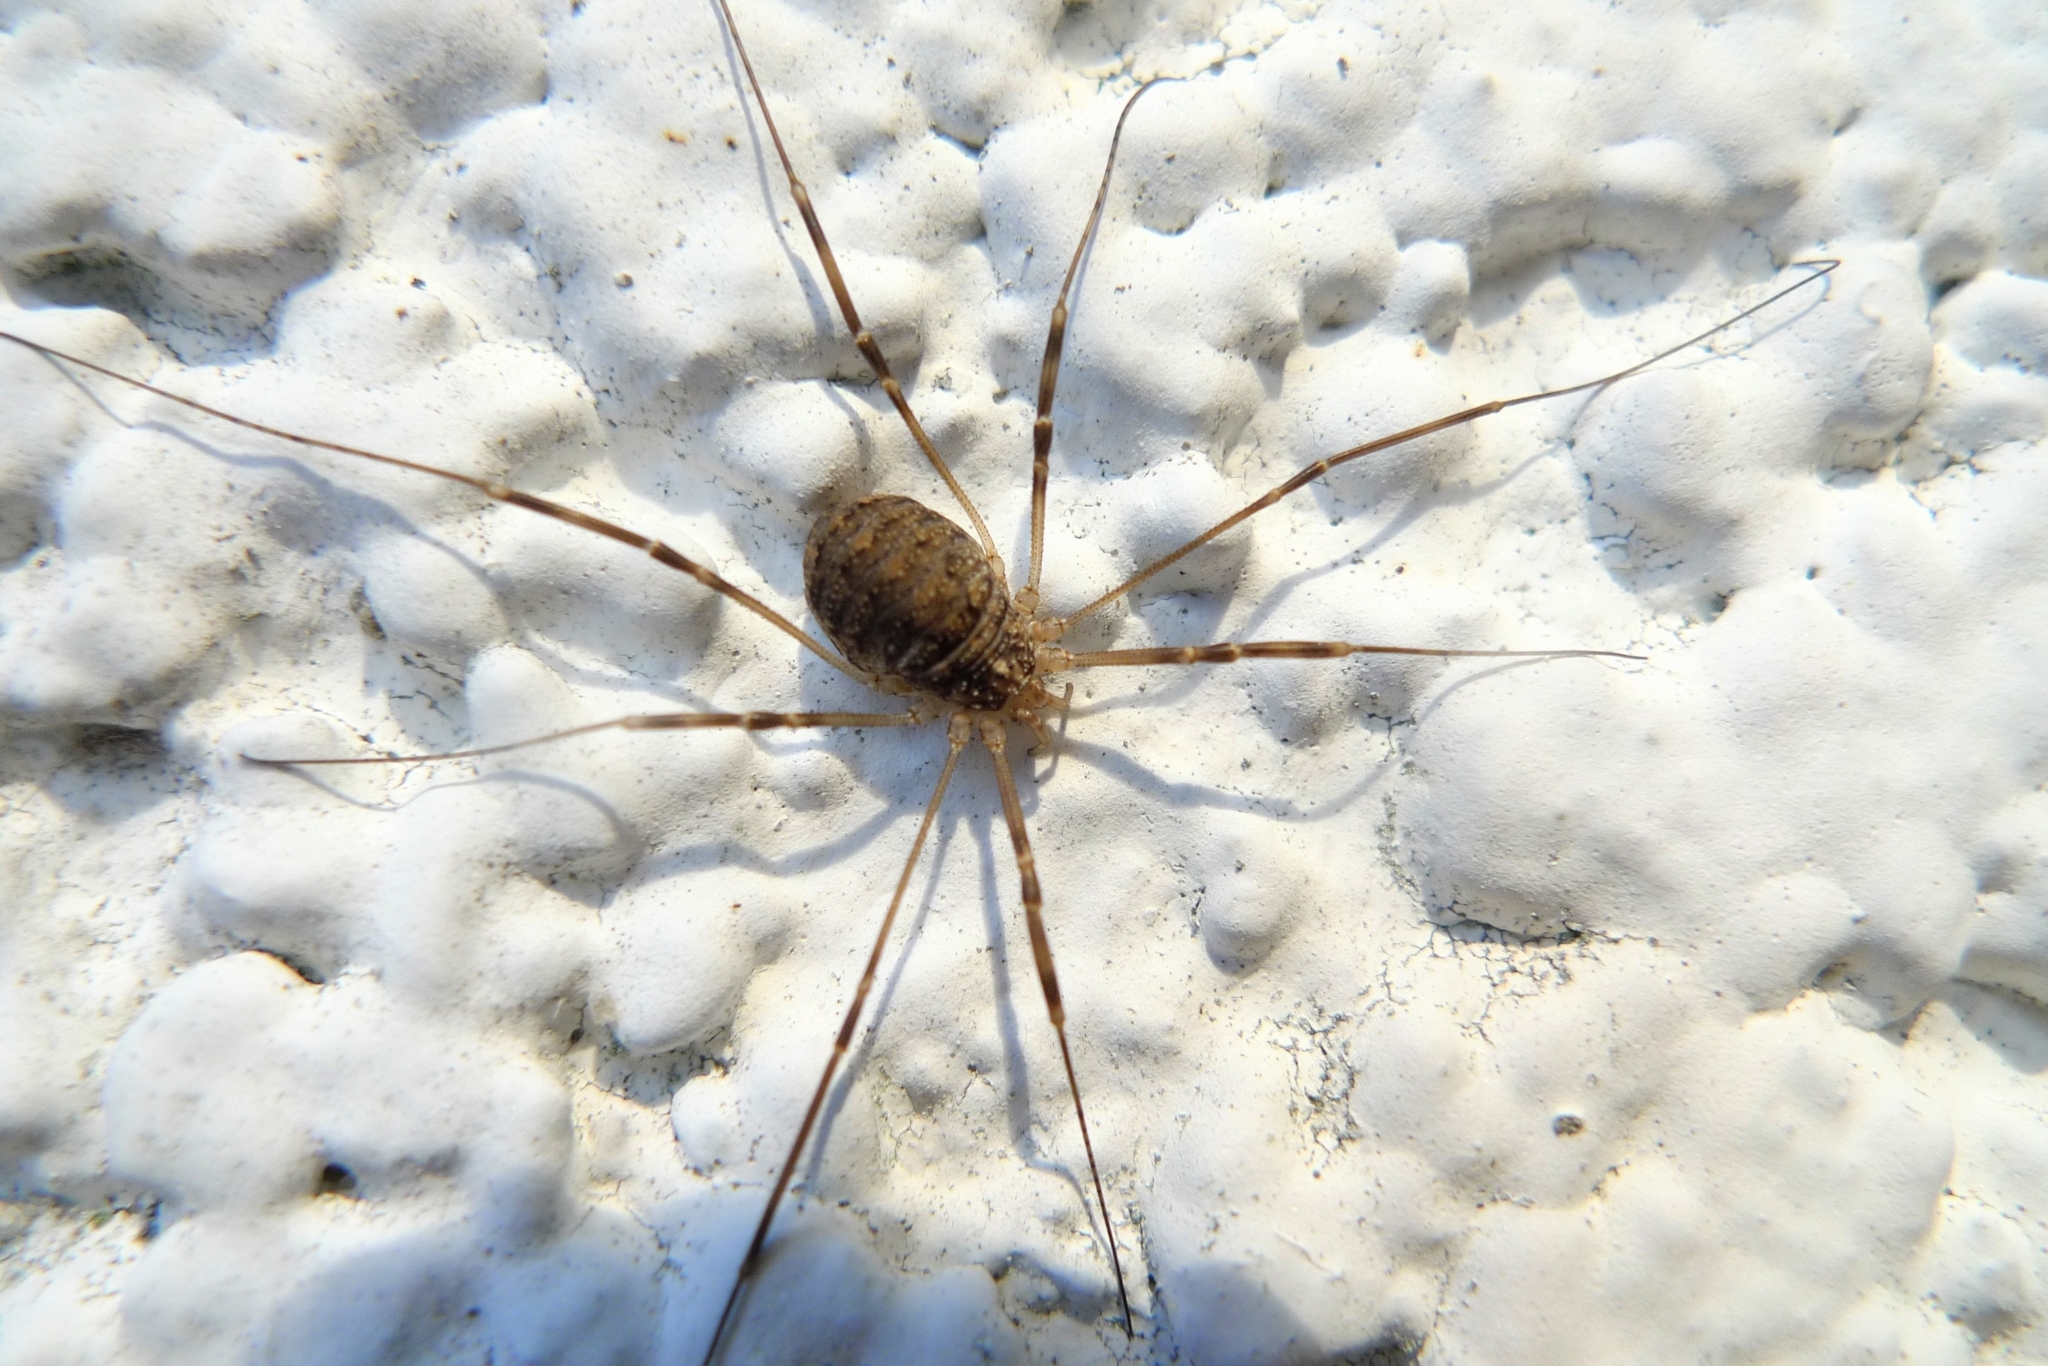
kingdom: Animalia
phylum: Arthropoda
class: Arachnida
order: Opiliones
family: Phalangiidae
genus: Opilio
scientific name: Opilio saxatilis
